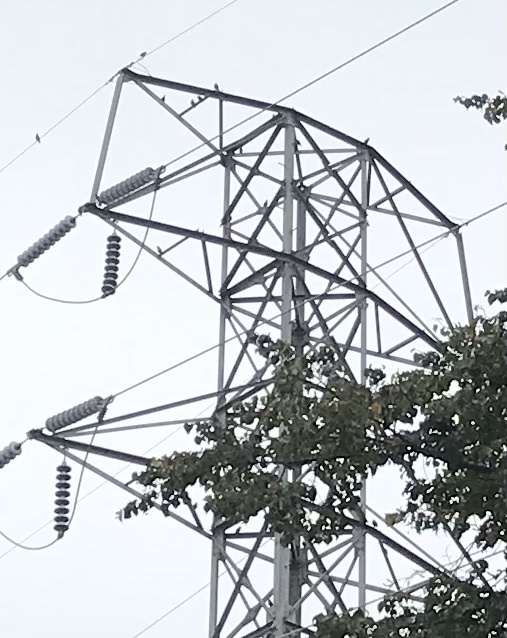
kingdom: Animalia
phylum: Chordata
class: Aves
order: Passeriformes
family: Sturnidae
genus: Sturnus
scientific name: Sturnus vulgaris
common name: Common starling
